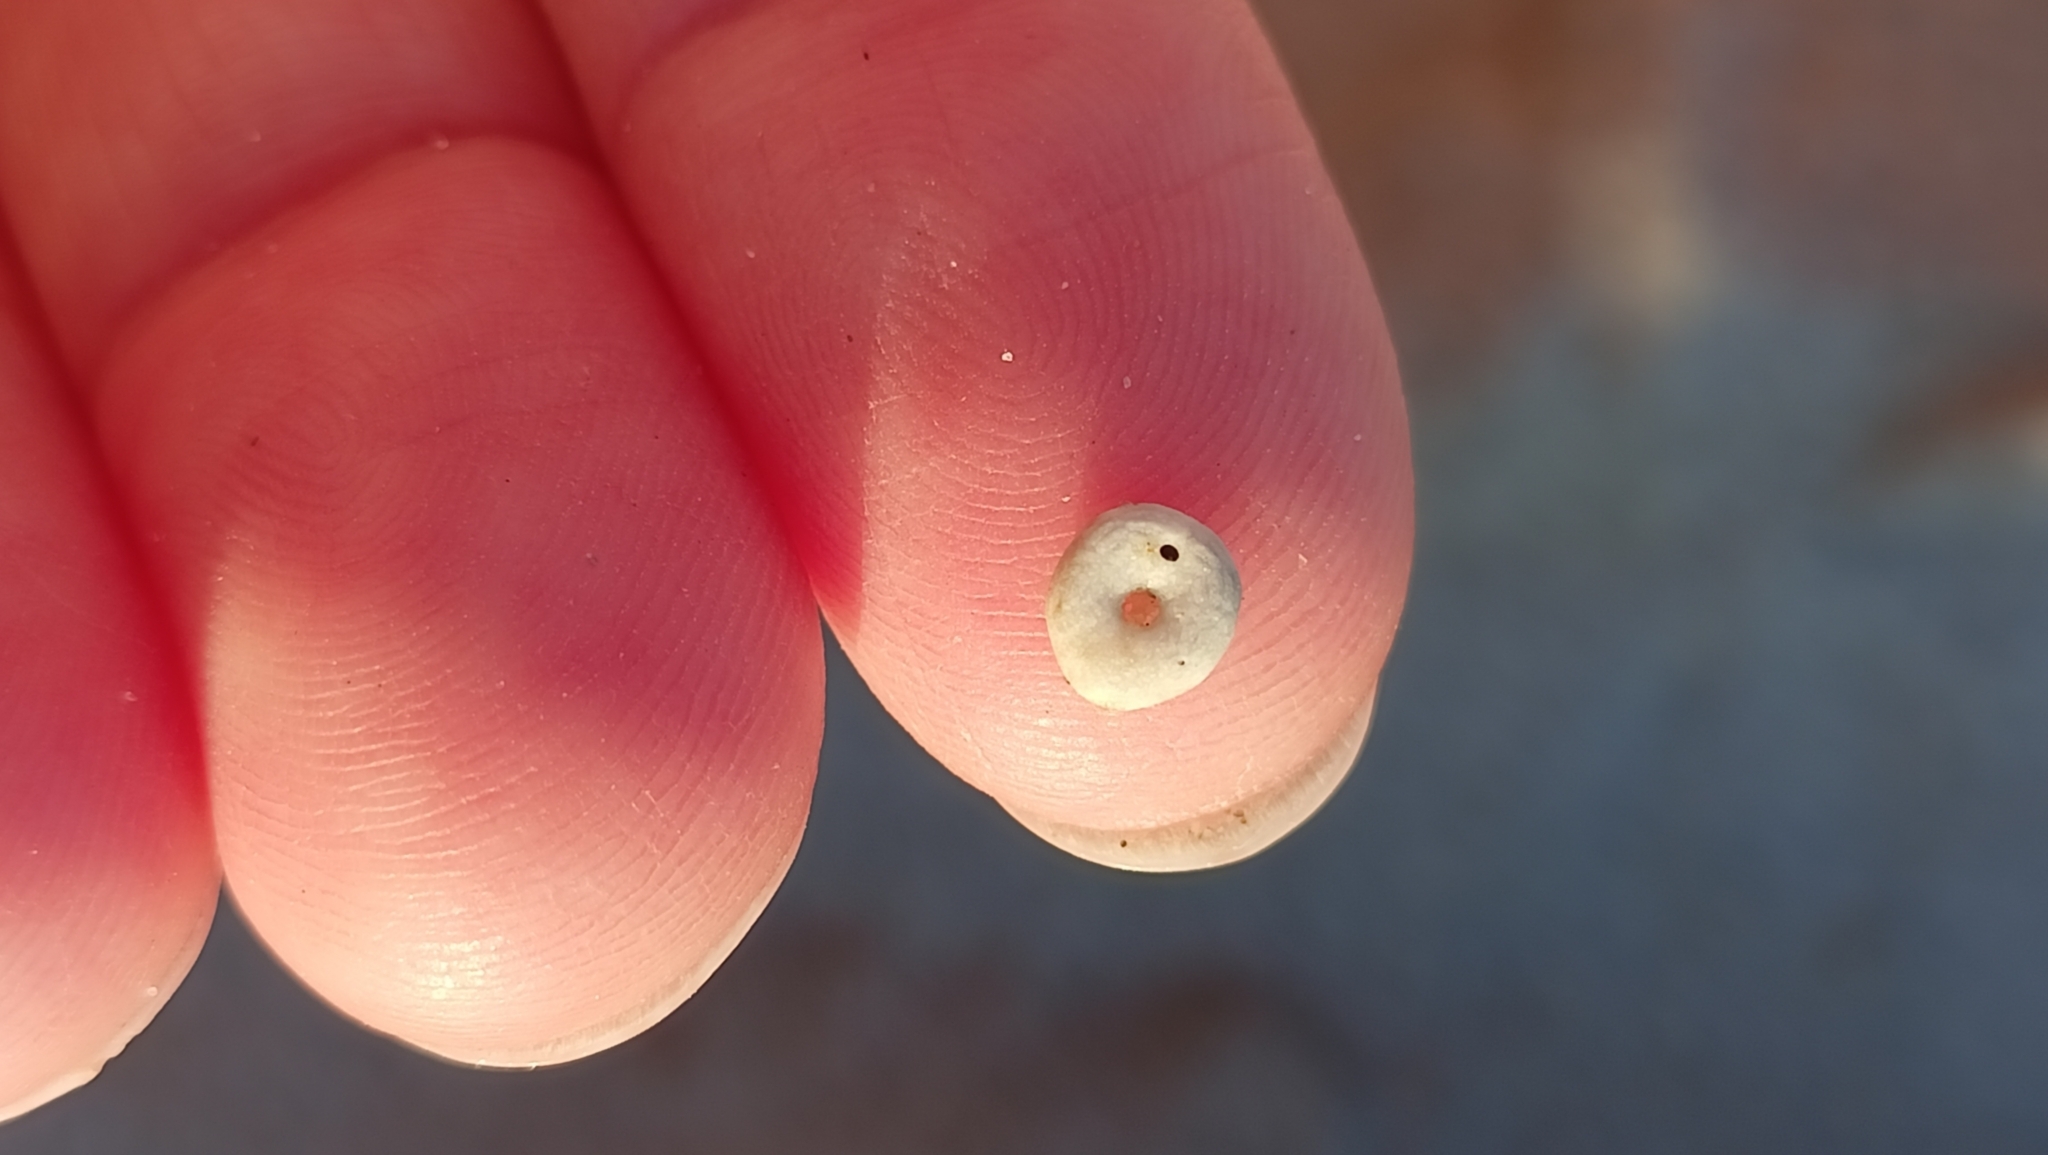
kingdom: Animalia
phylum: Echinodermata
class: Echinoidea
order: Echinolampadacea
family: Fibulariidae
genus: Echinocyamus
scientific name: Echinocyamus pusillus
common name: Broad beau of sea
